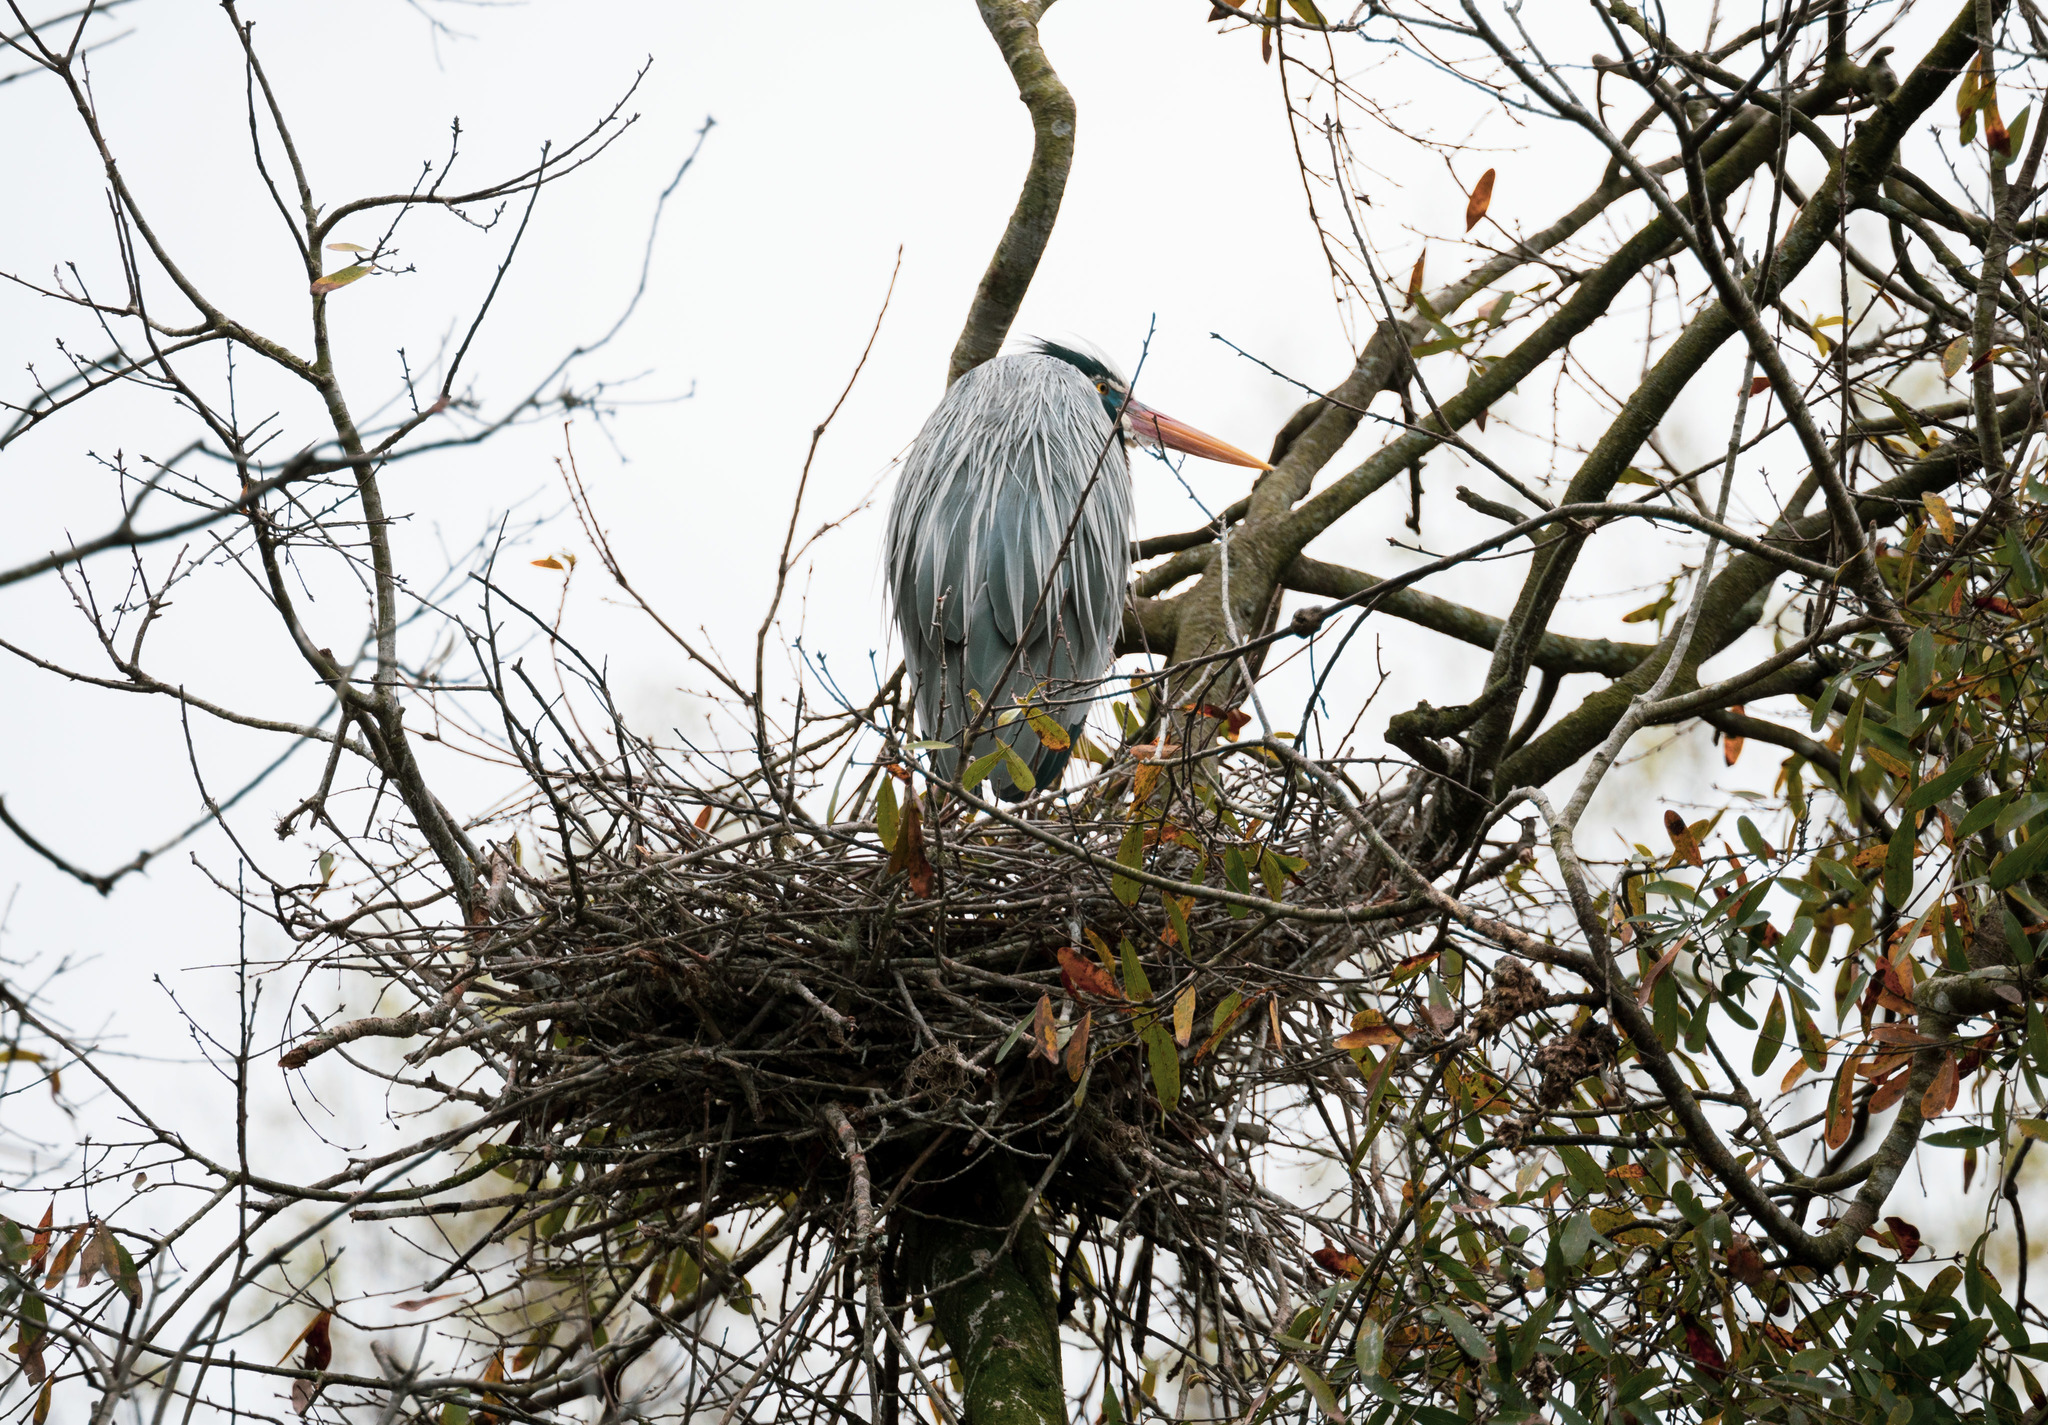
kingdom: Animalia
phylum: Chordata
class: Aves
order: Pelecaniformes
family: Ardeidae
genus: Ardea
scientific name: Ardea herodias
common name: Great blue heron
